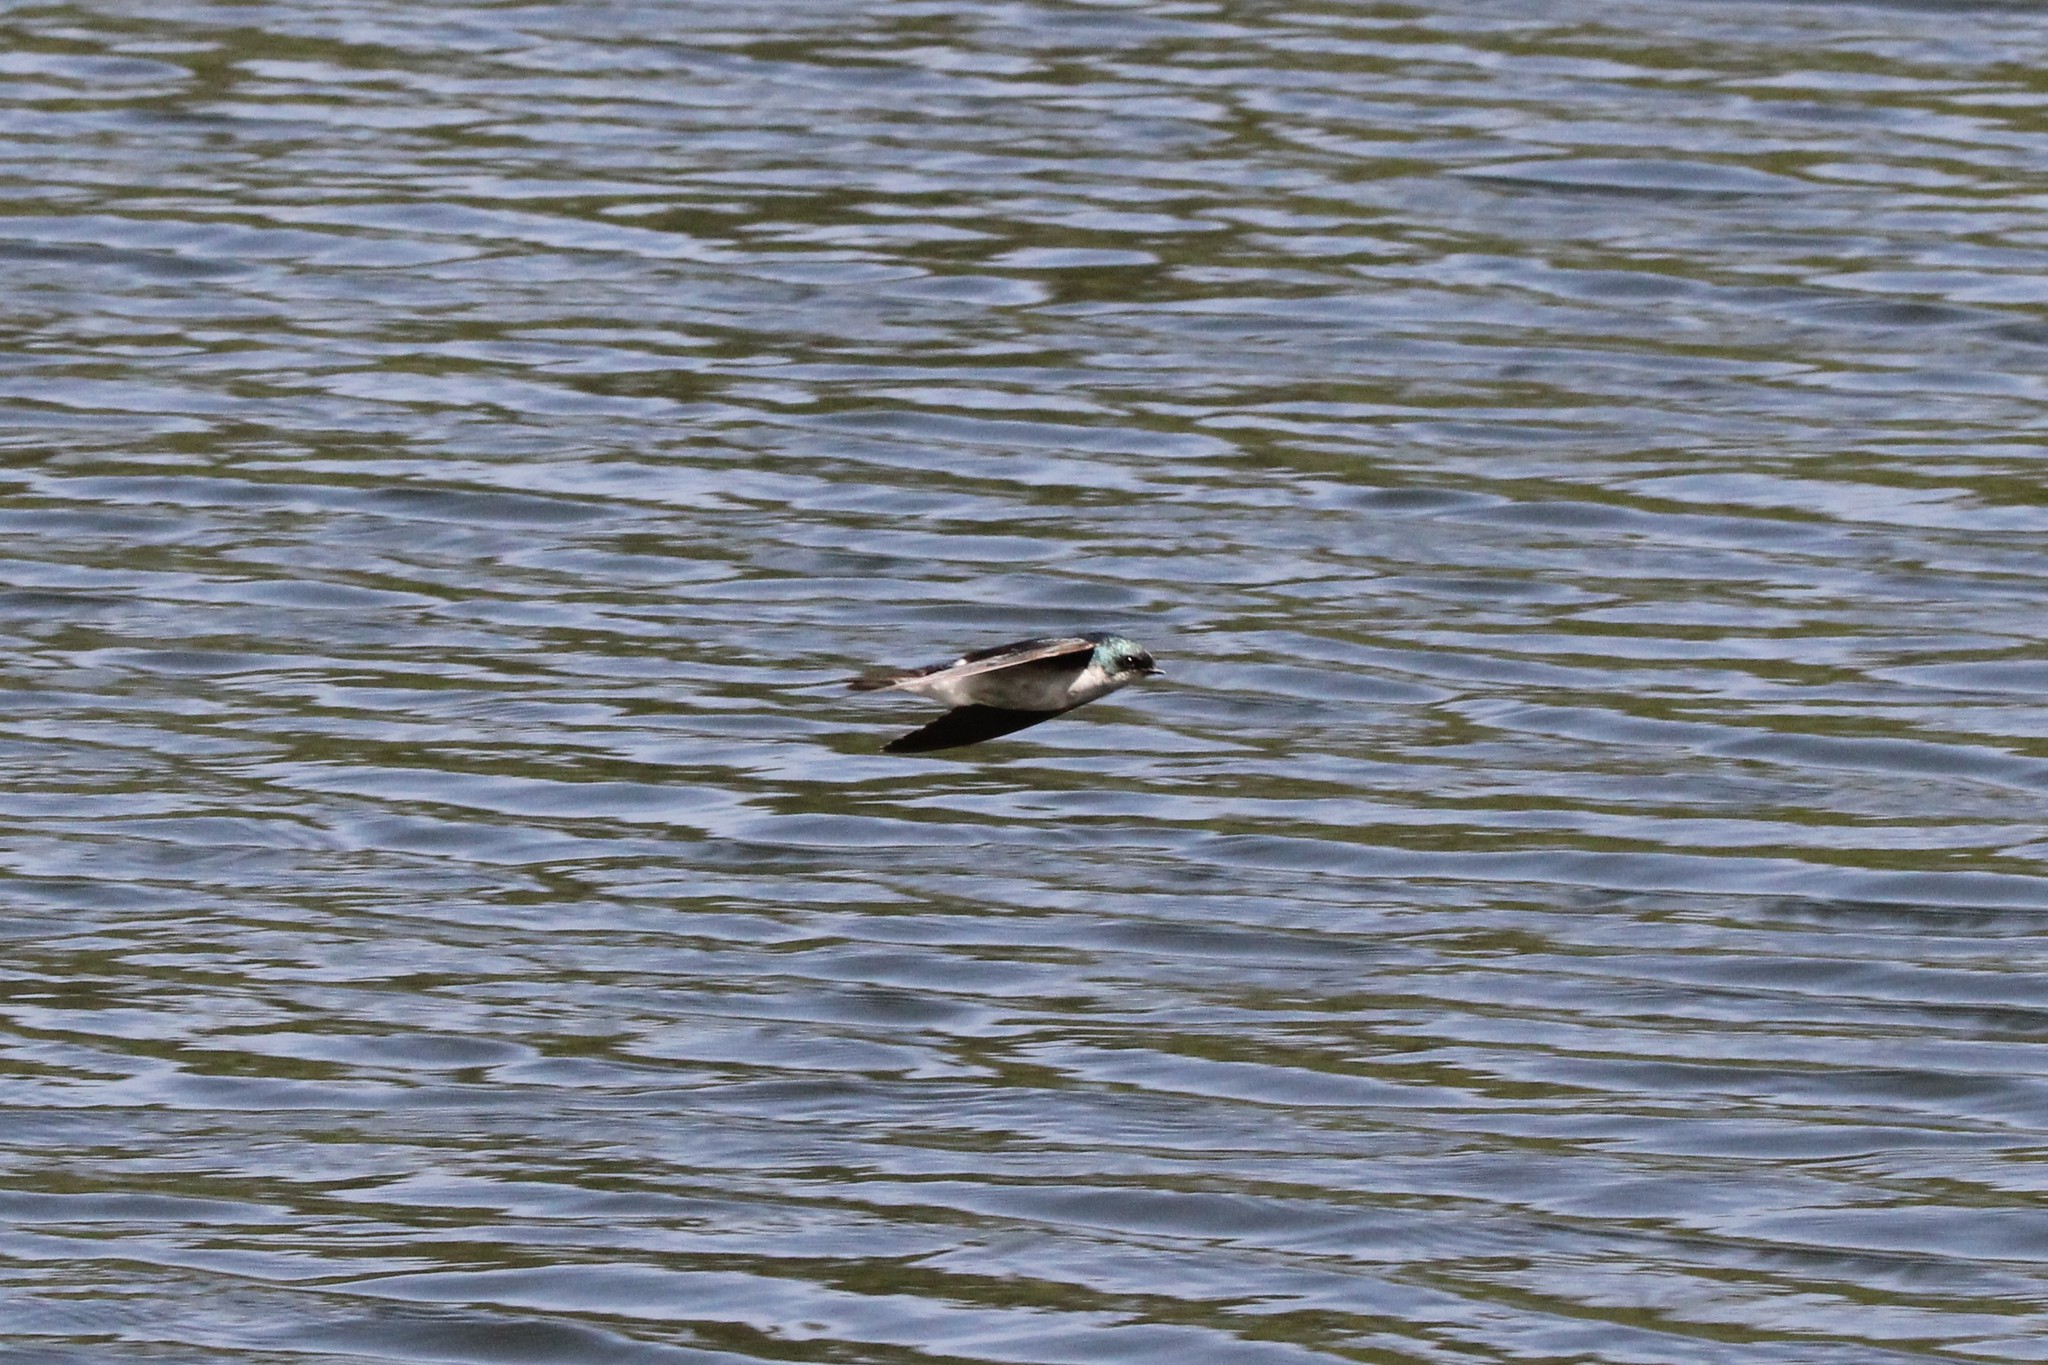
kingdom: Animalia
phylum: Chordata
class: Aves
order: Passeriformes
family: Hirundinidae
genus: Tachycineta
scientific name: Tachycineta bicolor
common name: Tree swallow
